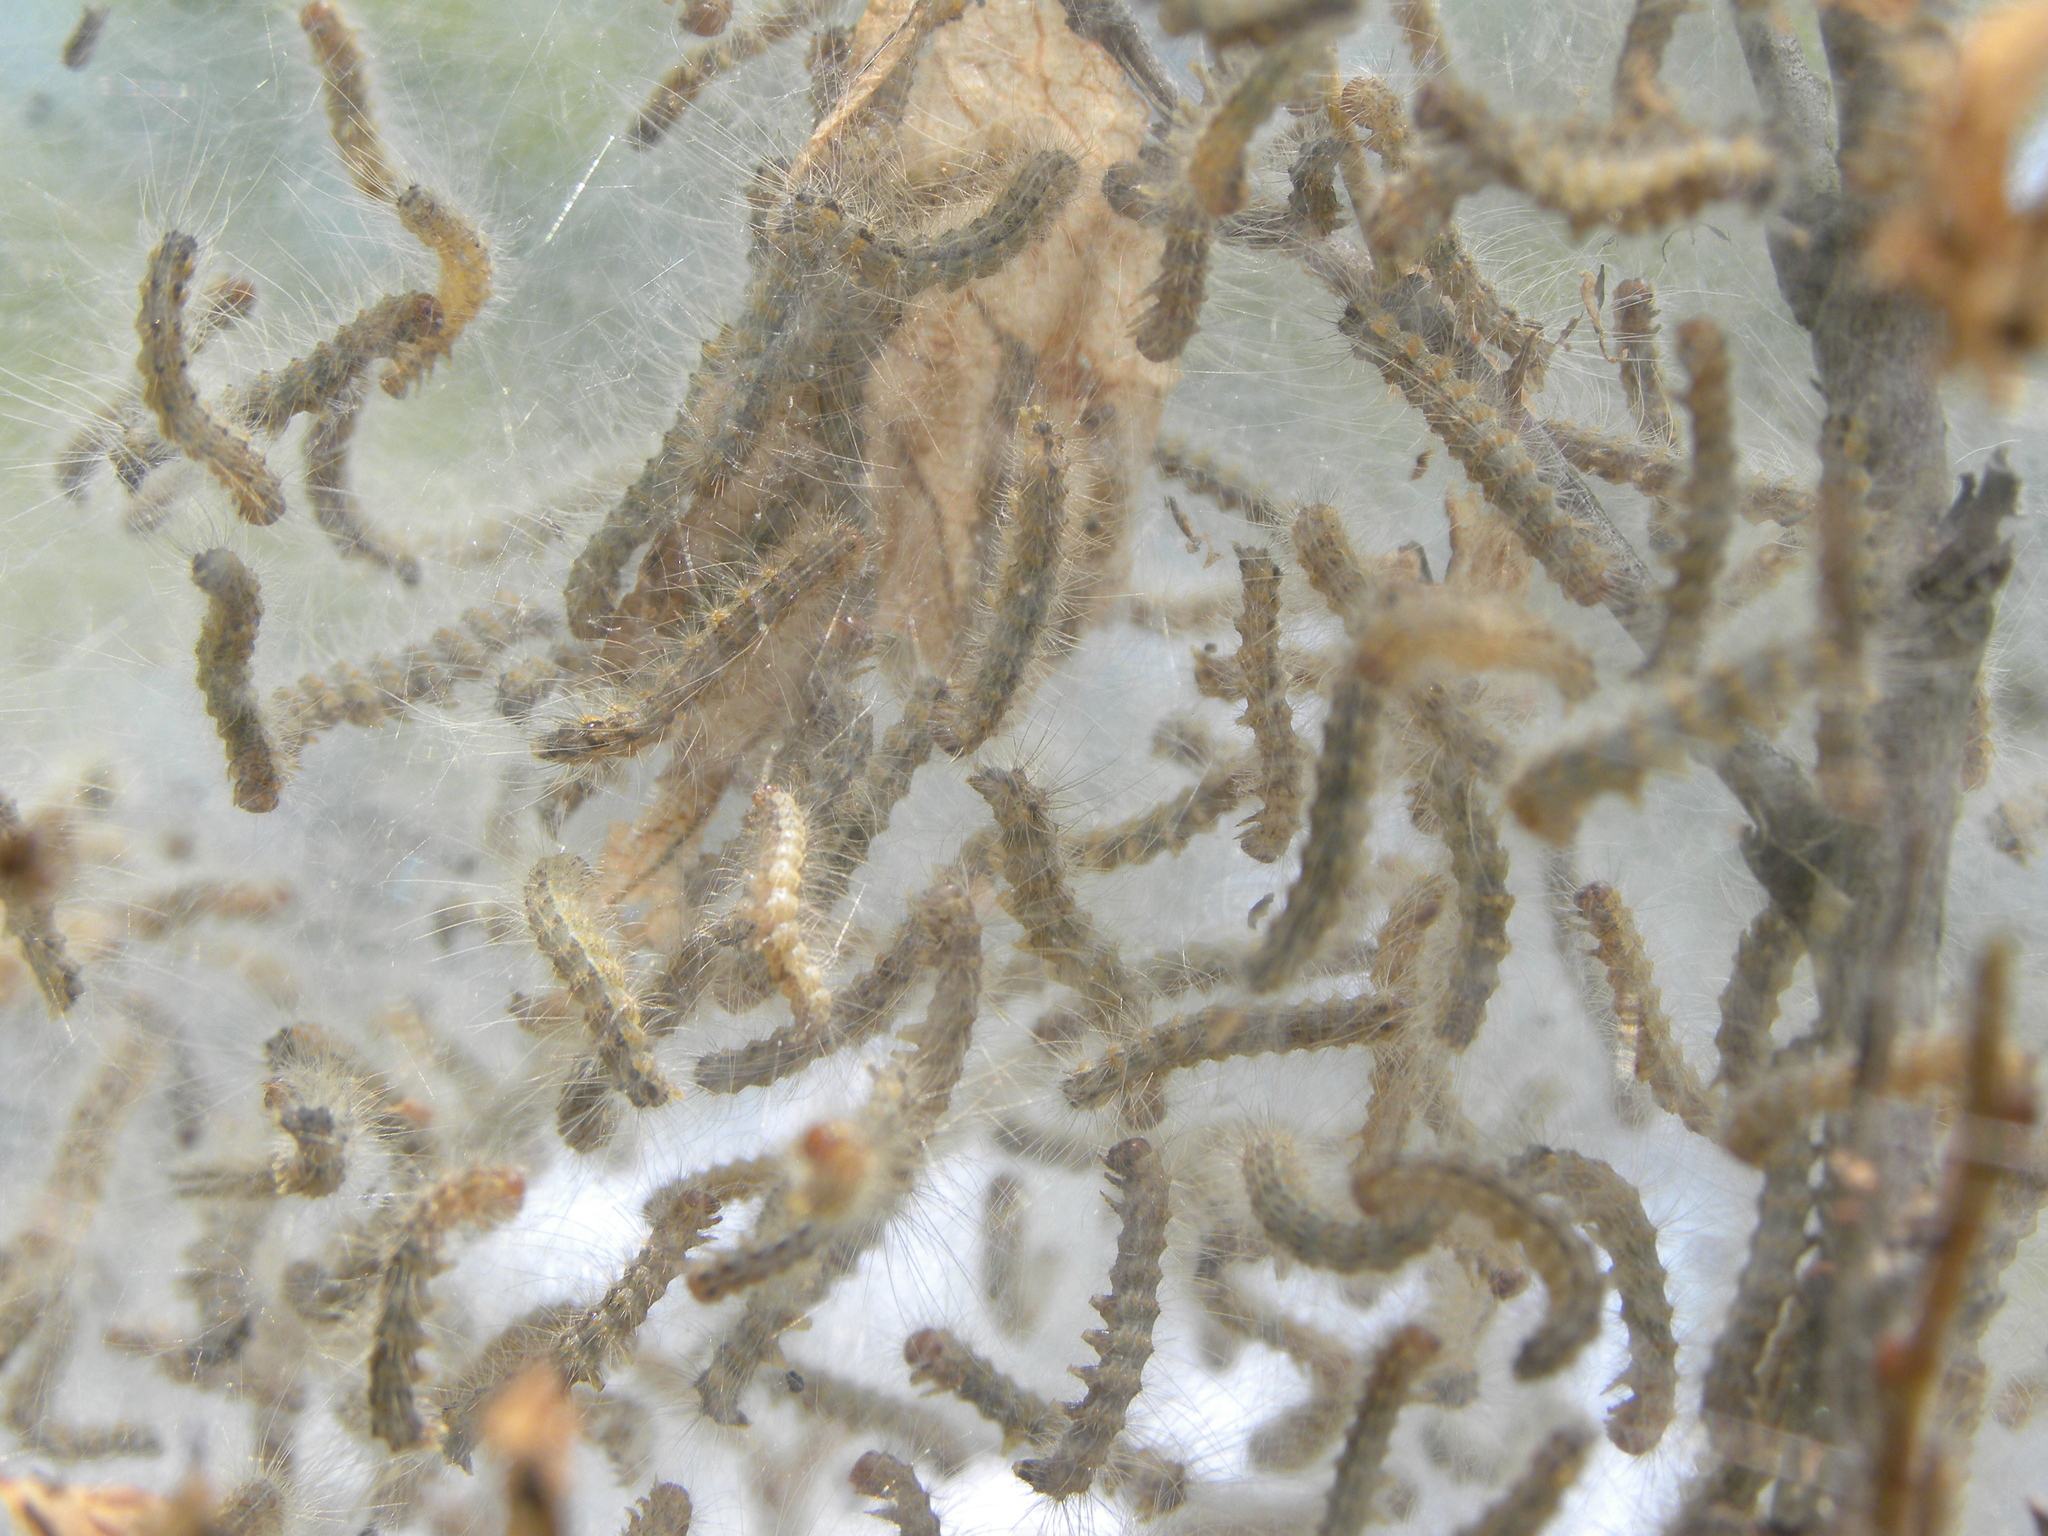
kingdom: Animalia
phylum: Arthropoda
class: Insecta
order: Lepidoptera
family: Erebidae
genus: Hyphantria
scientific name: Hyphantria cunea
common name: American white moth
